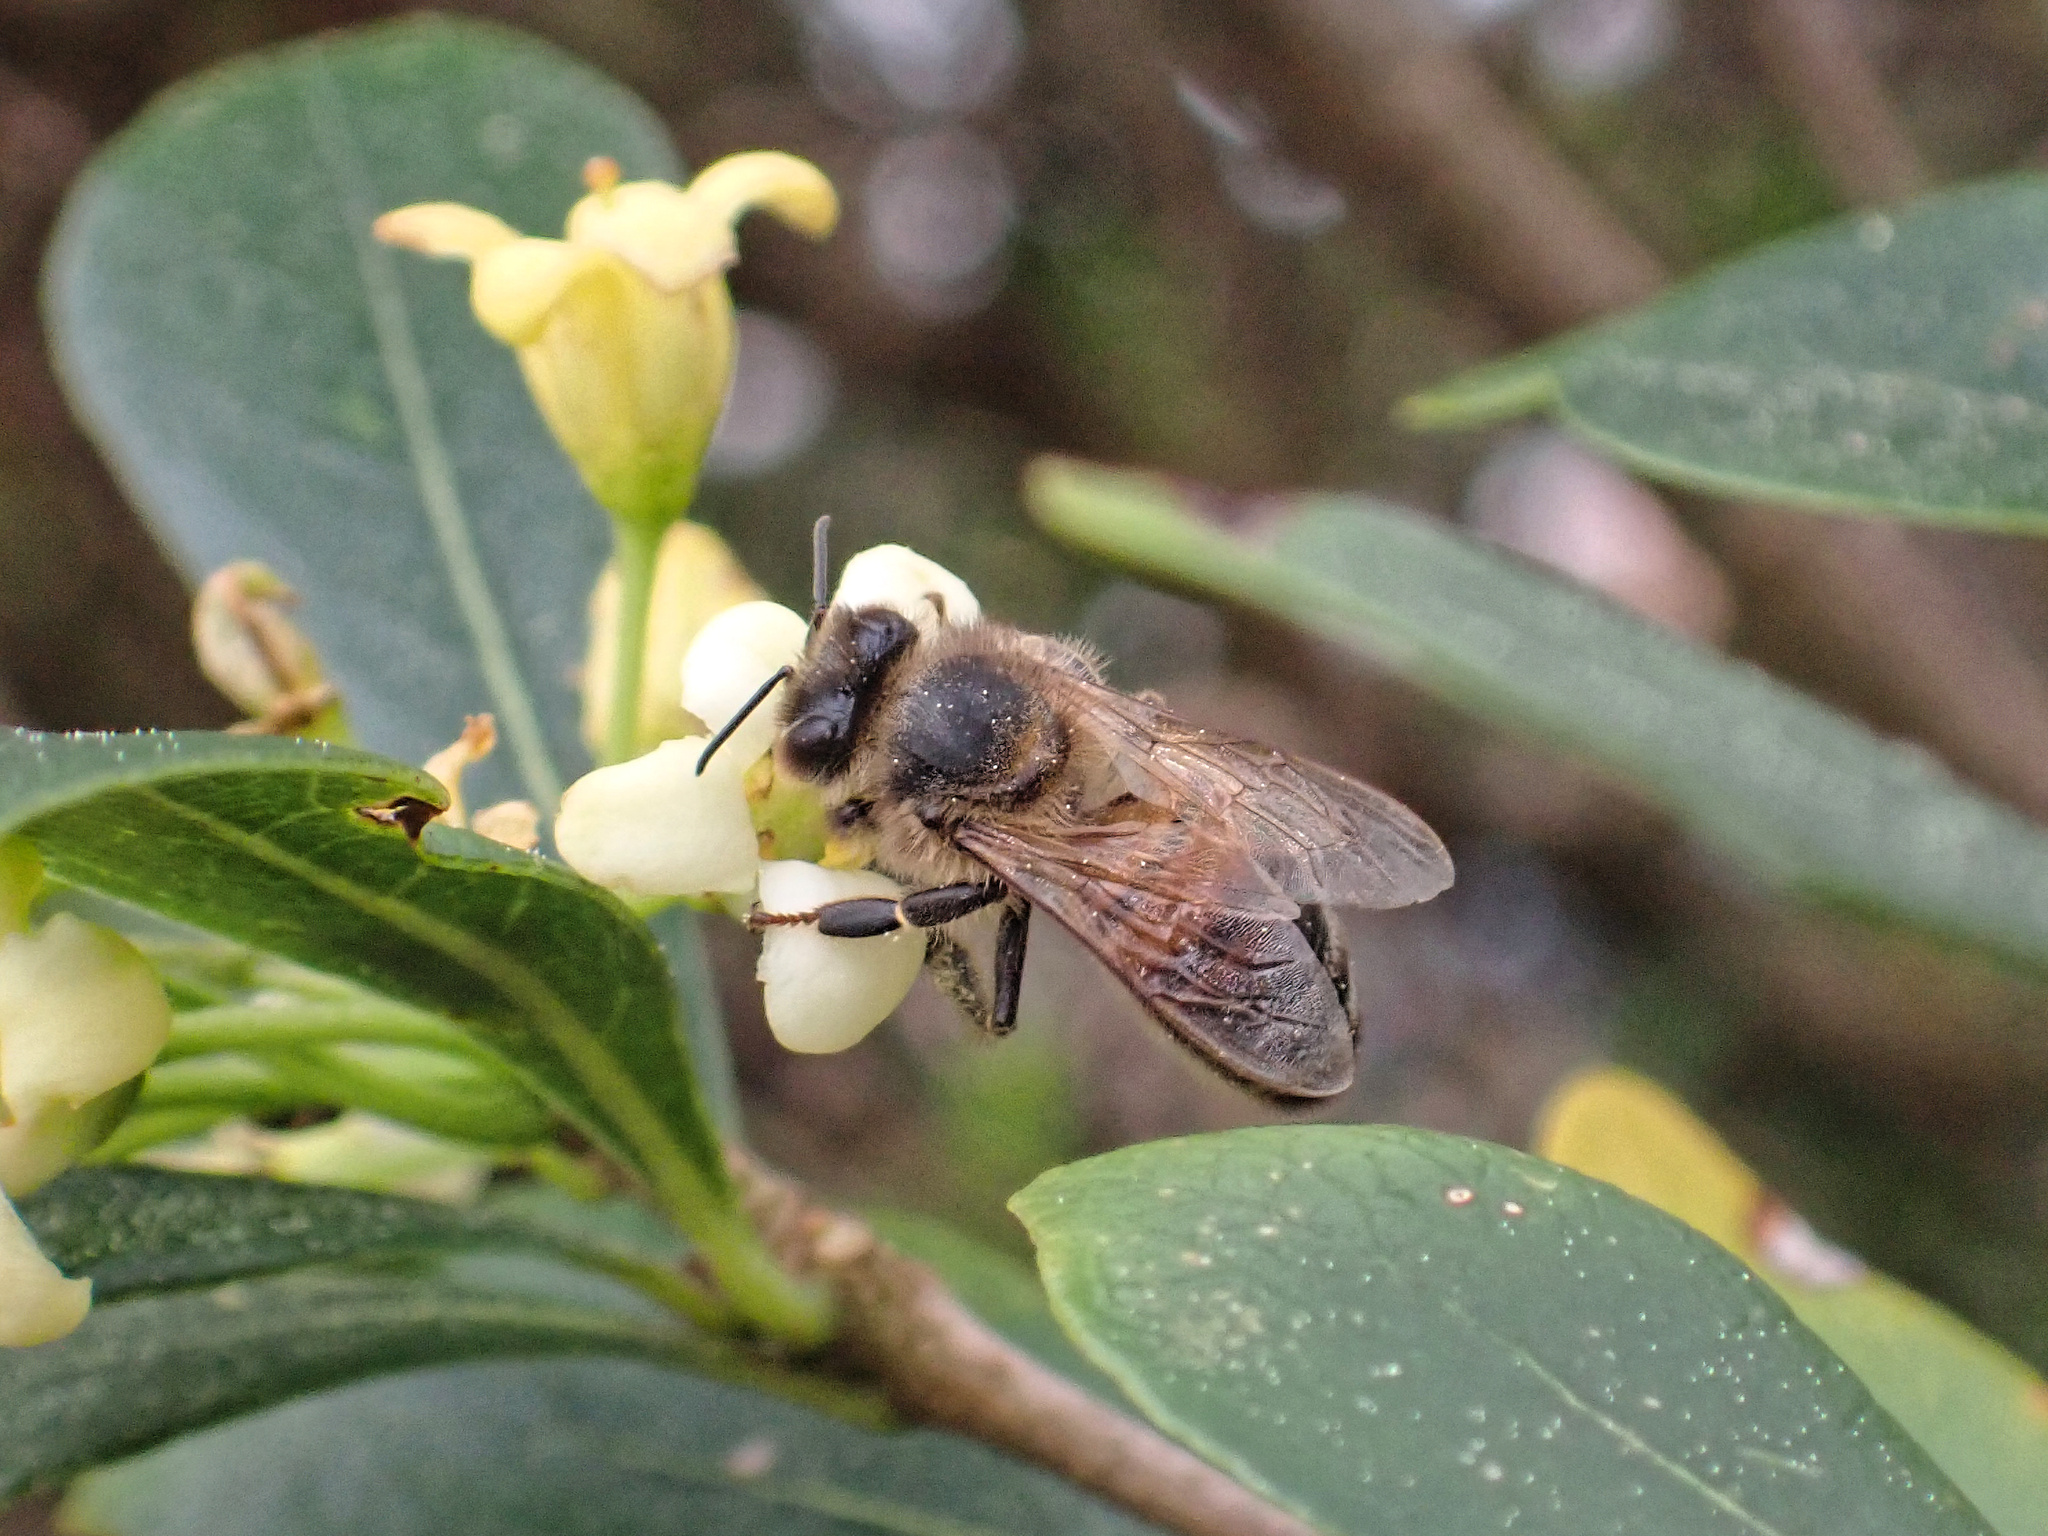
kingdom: Animalia
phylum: Arthropoda
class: Insecta
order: Hymenoptera
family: Apidae
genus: Apis
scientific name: Apis mellifera
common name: Honey bee
